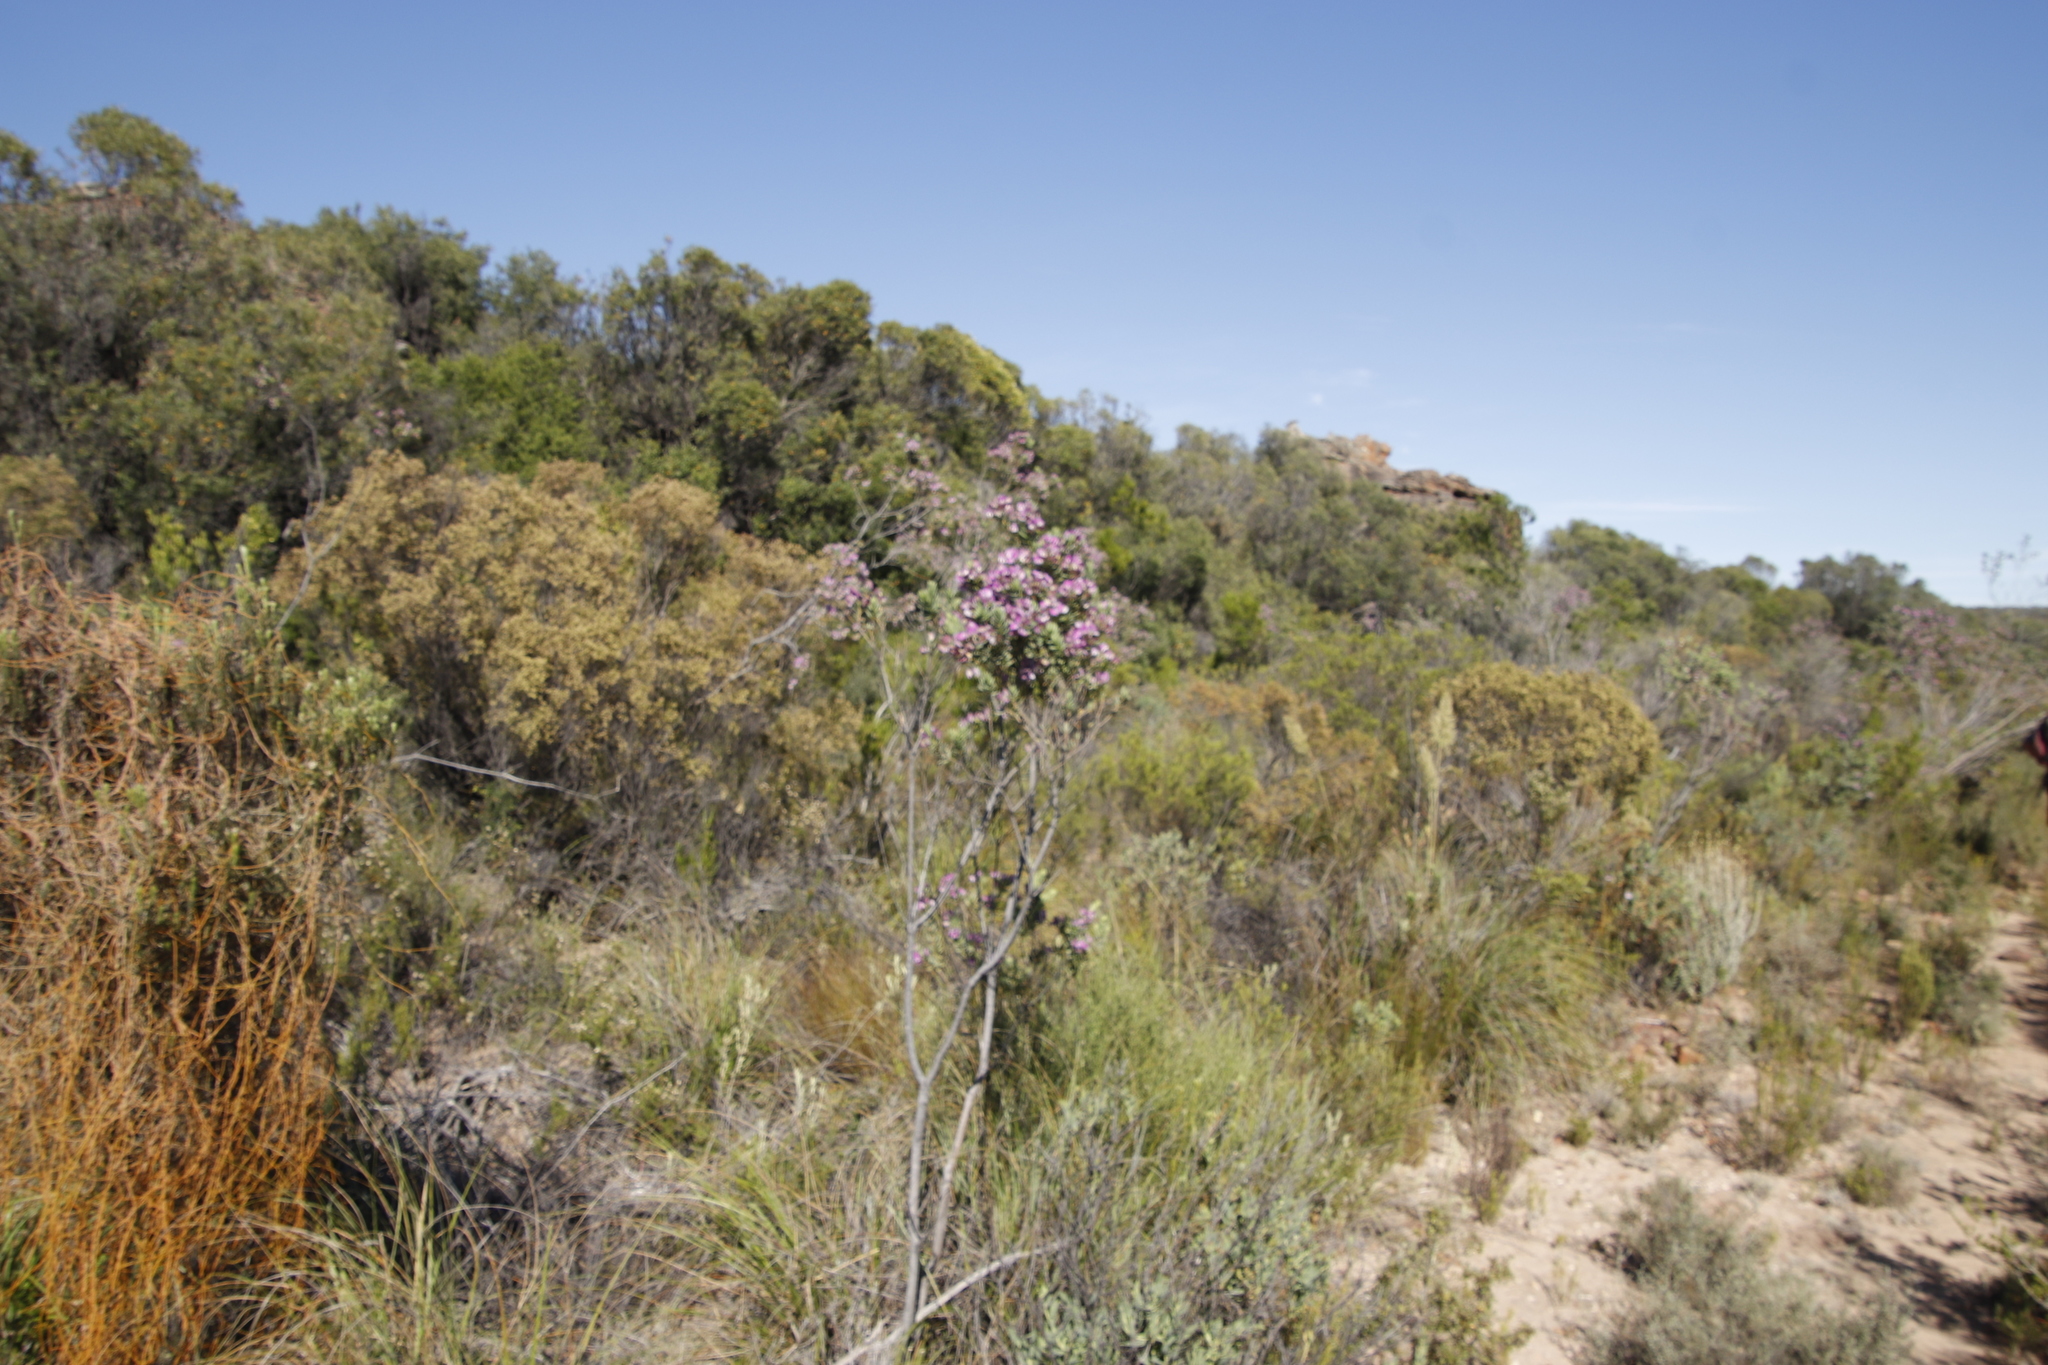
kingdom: Plantae
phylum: Tracheophyta
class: Magnoliopsida
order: Fabales
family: Polygalaceae
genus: Polygala
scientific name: Polygala myrtifolia
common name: Myrtle-leaf milkwort
